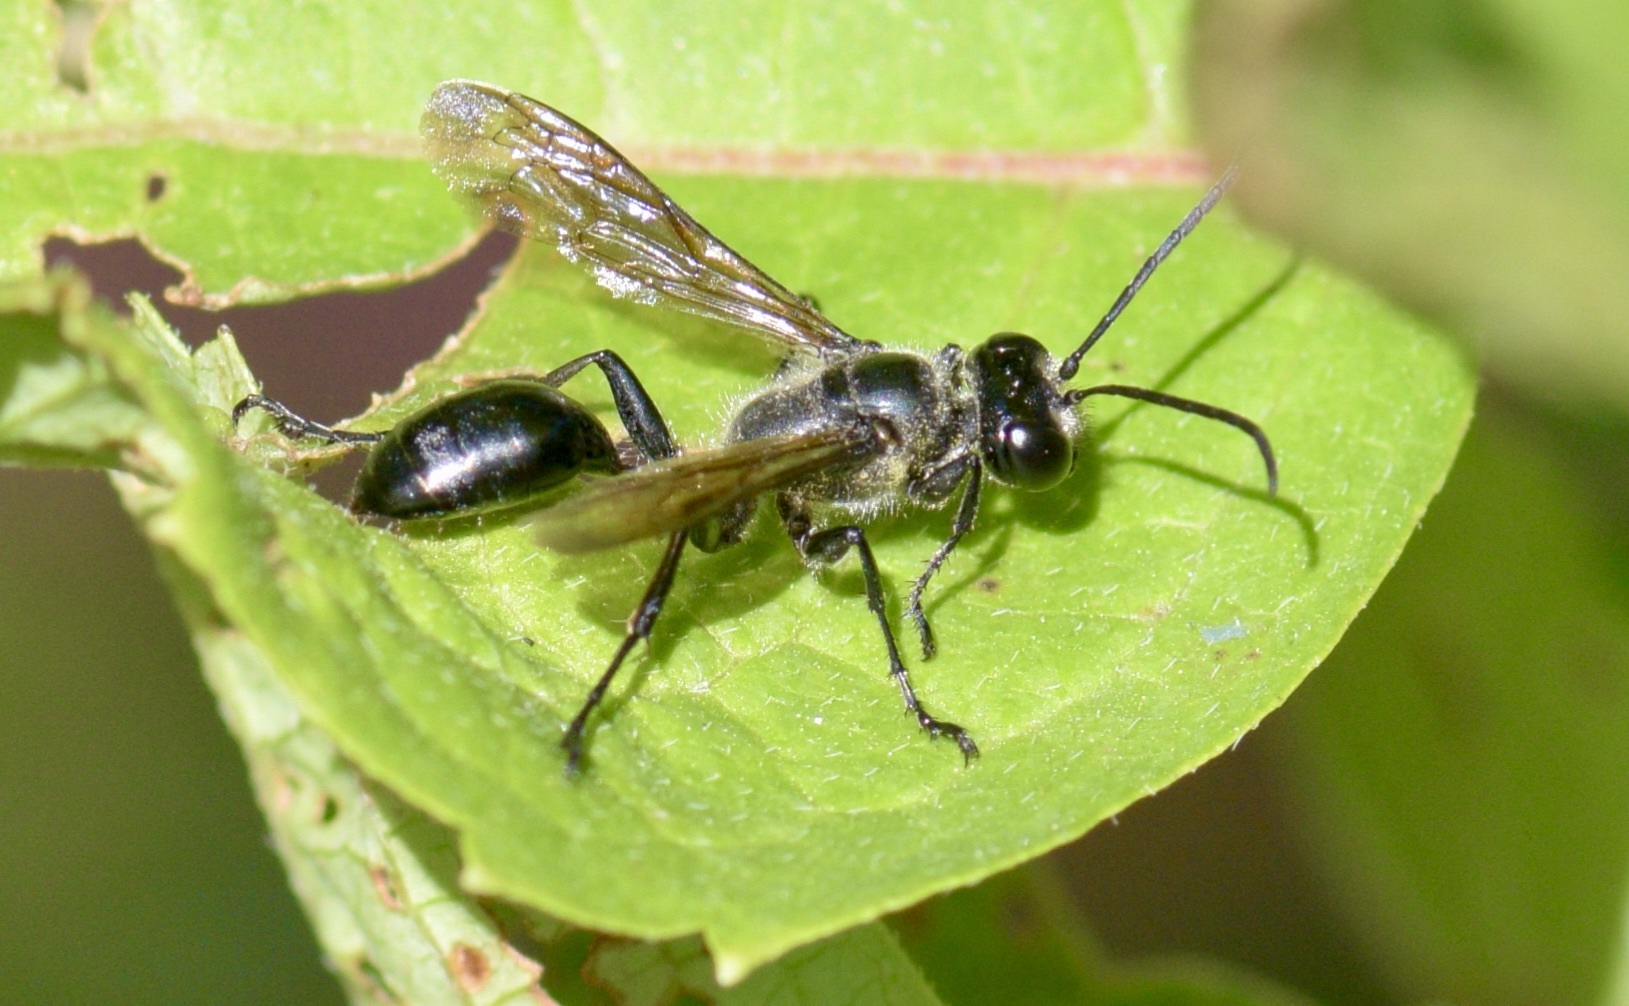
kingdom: Animalia
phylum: Arthropoda
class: Insecta
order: Hymenoptera
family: Sphecidae
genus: Isodontia
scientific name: Isodontia mexicana
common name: Mud dauber
